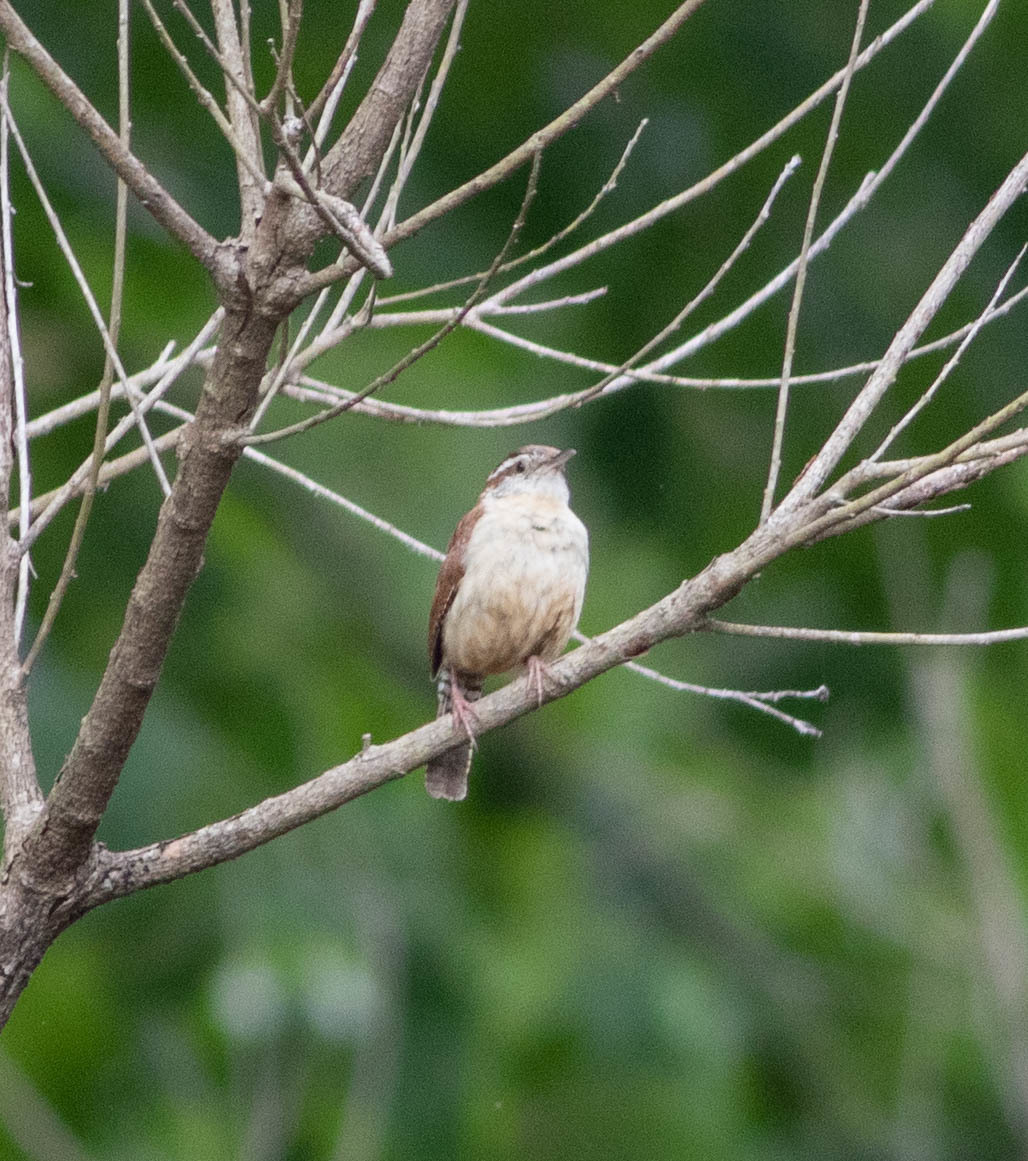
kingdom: Animalia
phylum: Chordata
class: Aves
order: Passeriformes
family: Troglodytidae
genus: Thryothorus
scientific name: Thryothorus ludovicianus
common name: Carolina wren
